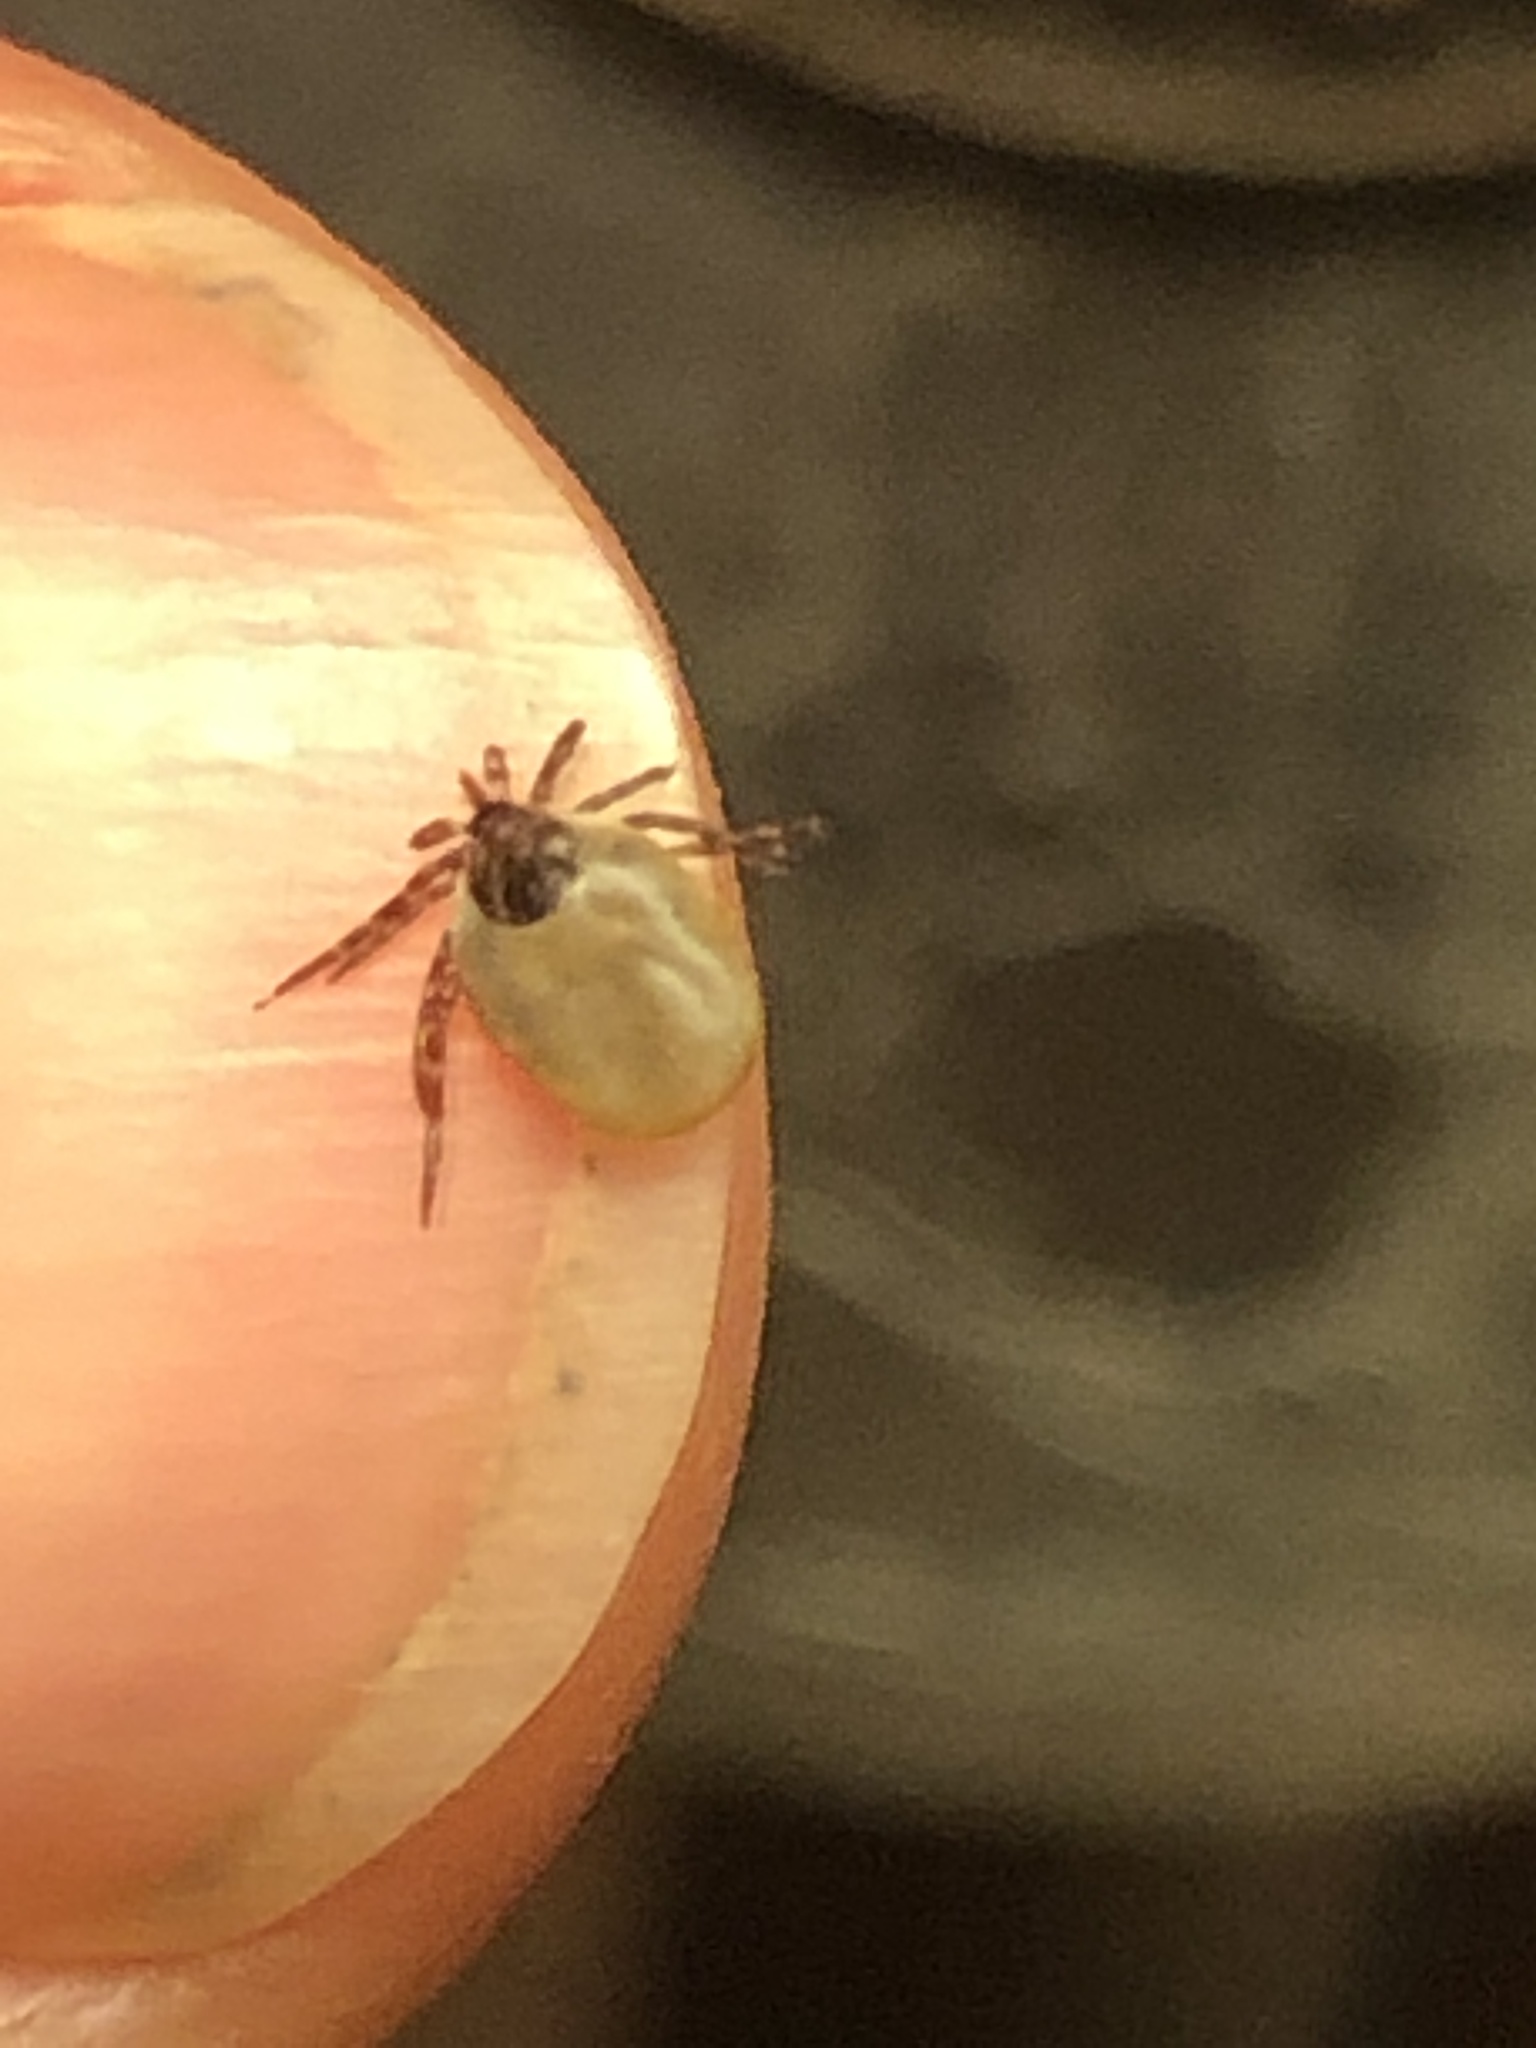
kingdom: Animalia
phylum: Arthropoda
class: Arachnida
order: Ixodida
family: Ixodidae
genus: Ixodes
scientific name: Ixodes scapularis
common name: Black legged tick
